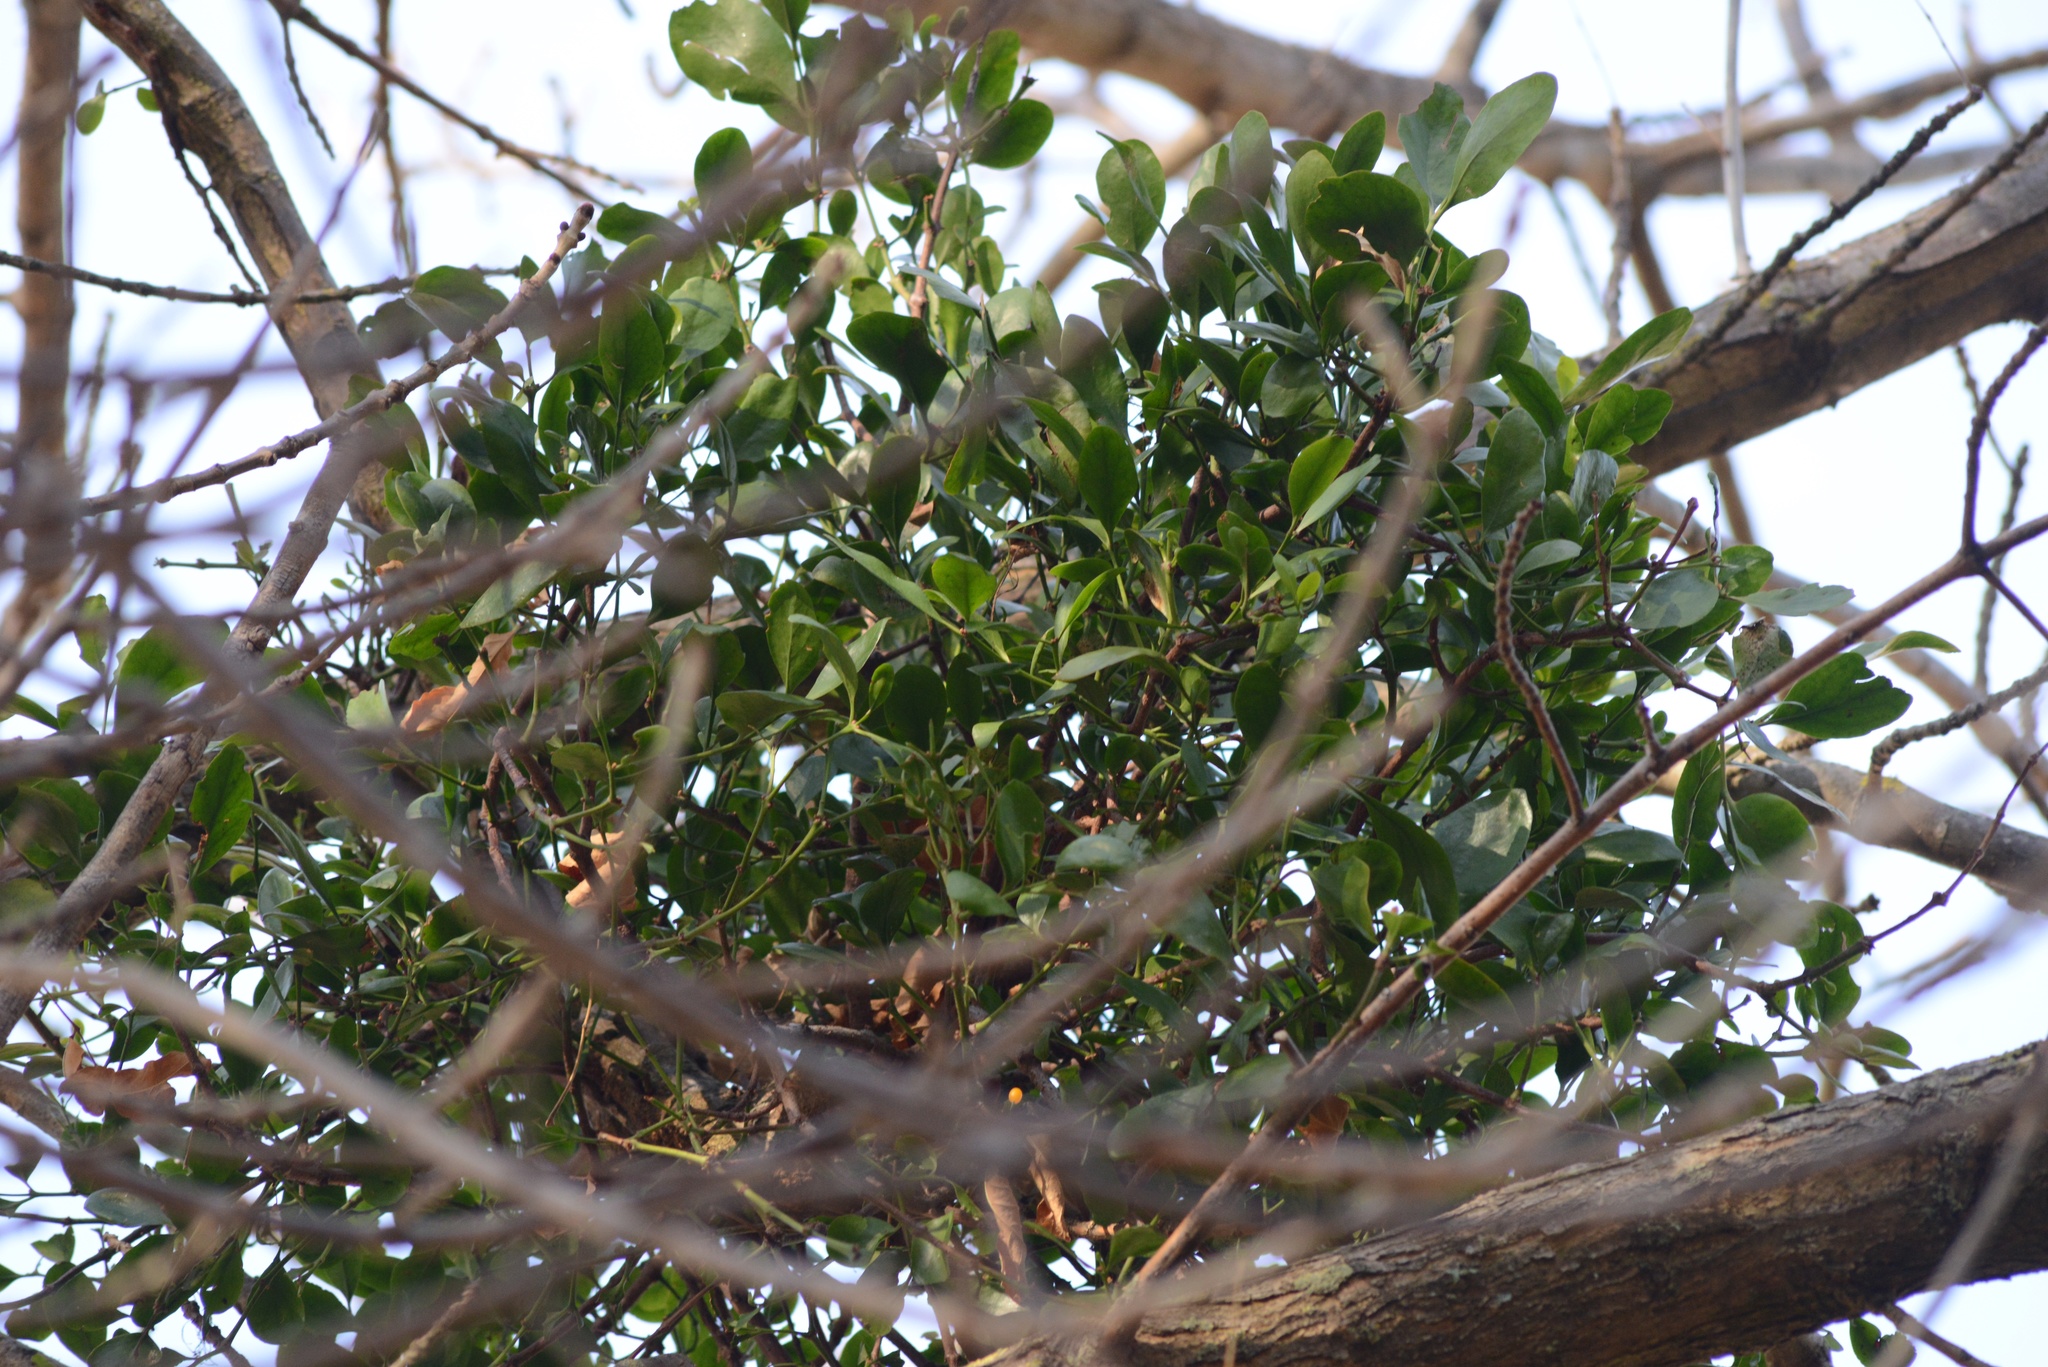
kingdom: Plantae
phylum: Tracheophyta
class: Magnoliopsida
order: Santalales
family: Loranthaceae
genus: Ileostylus
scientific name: Ileostylus micranthus
